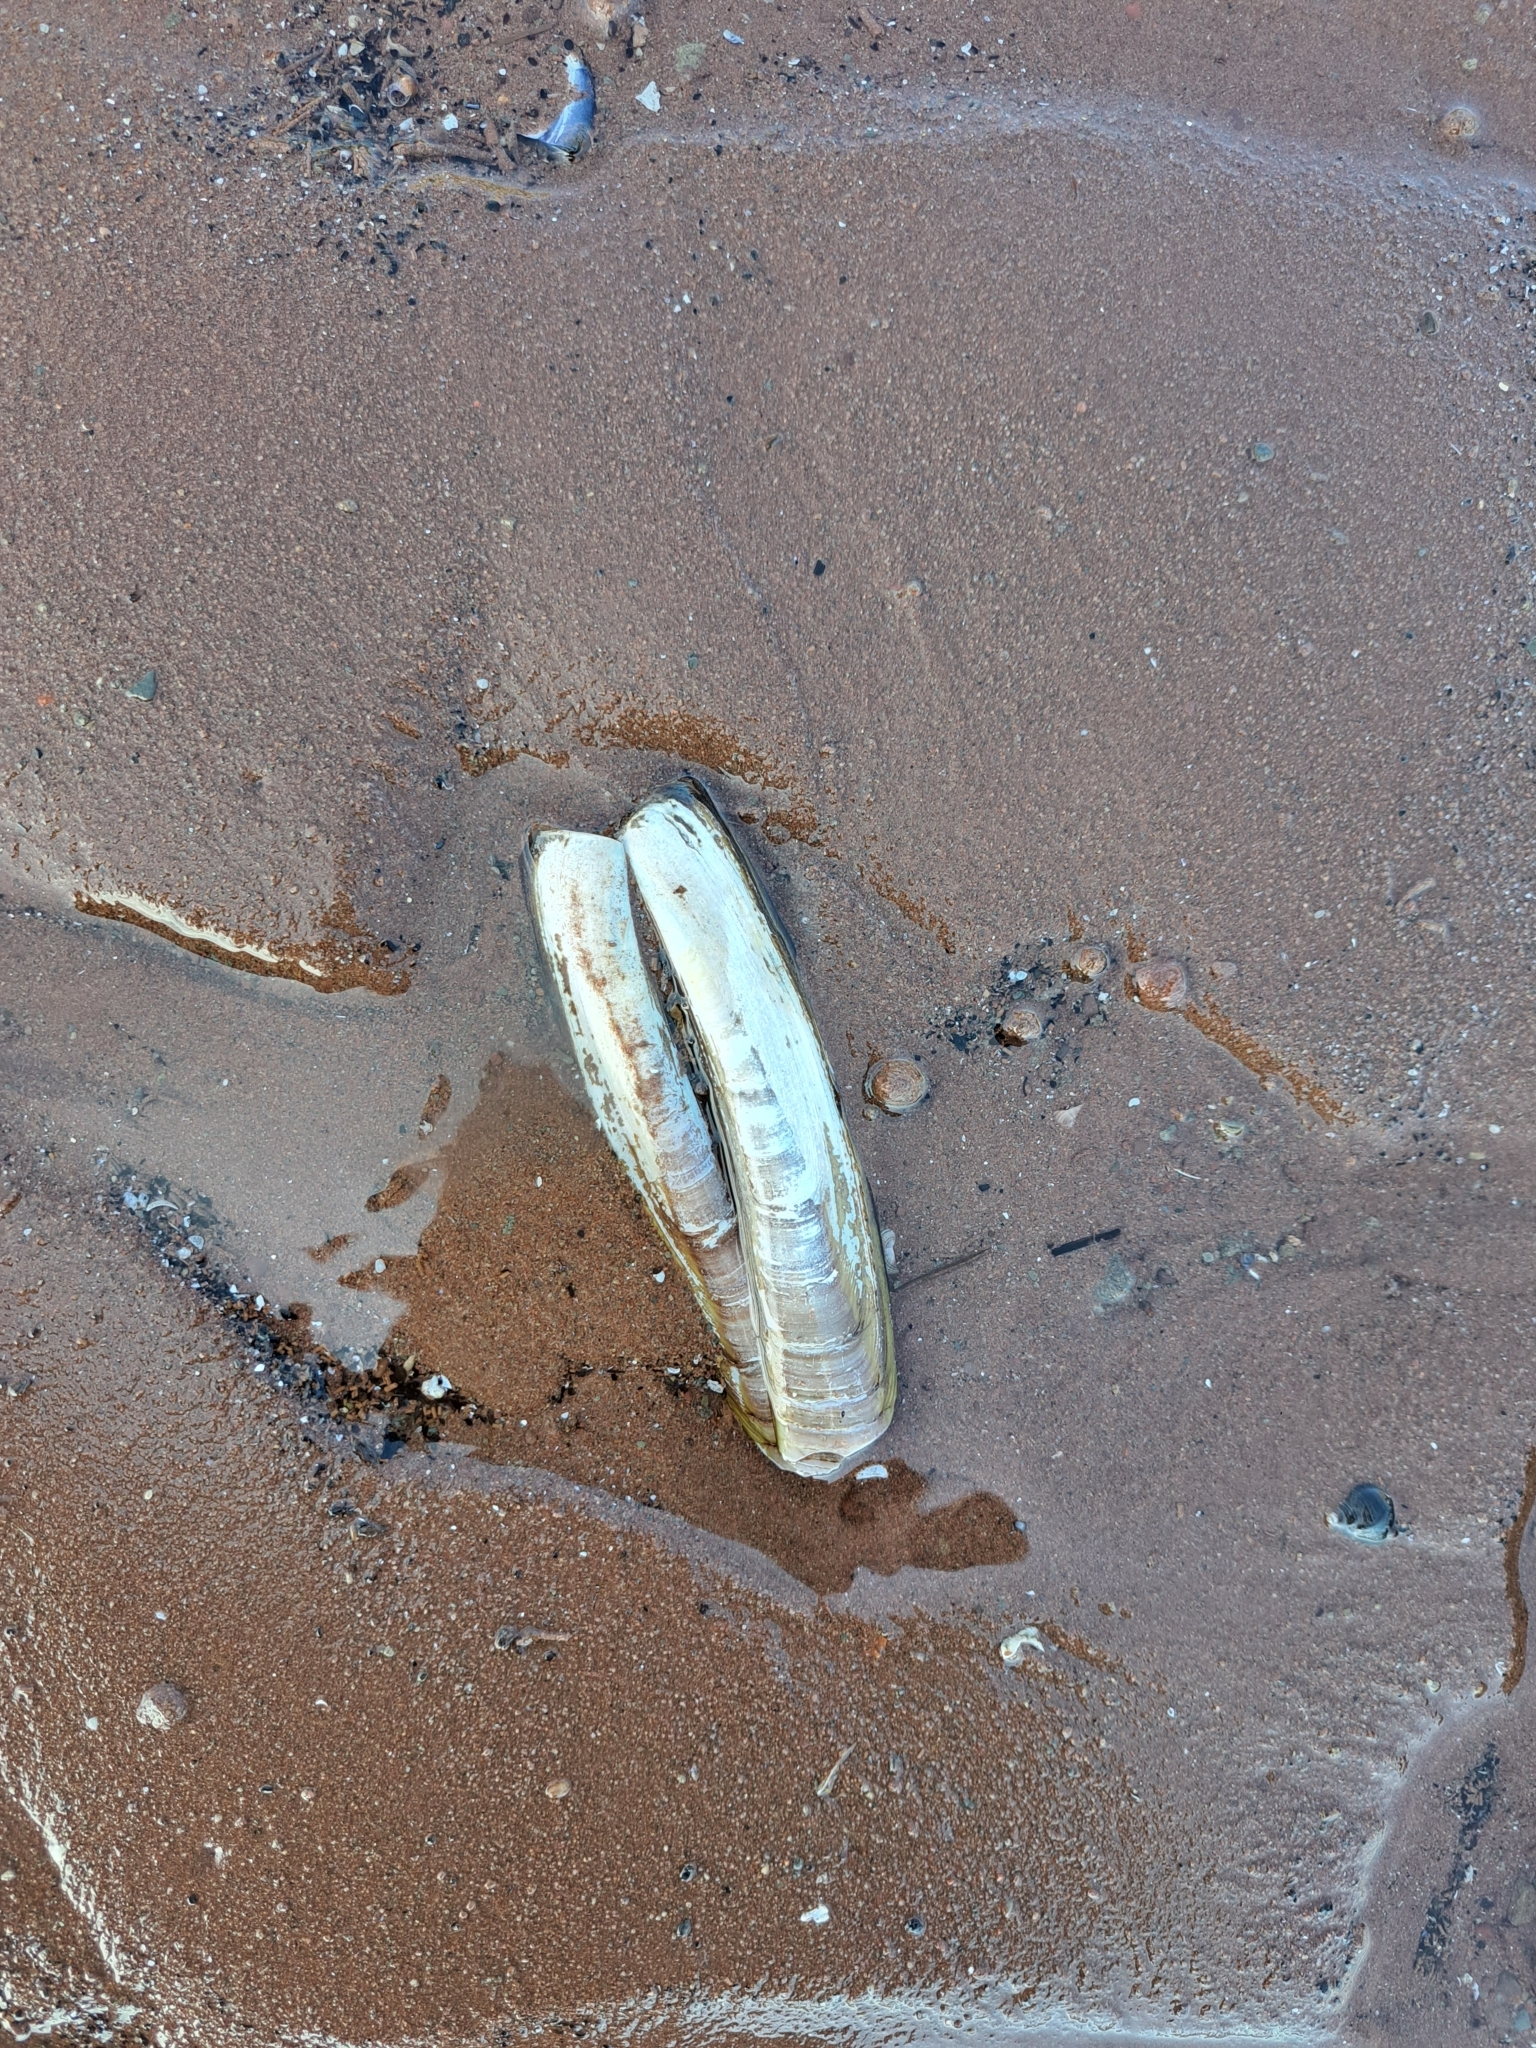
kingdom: Animalia
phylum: Mollusca
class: Bivalvia
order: Adapedonta
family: Pharidae
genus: Ensis
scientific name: Ensis leei
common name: American jack knife clam
